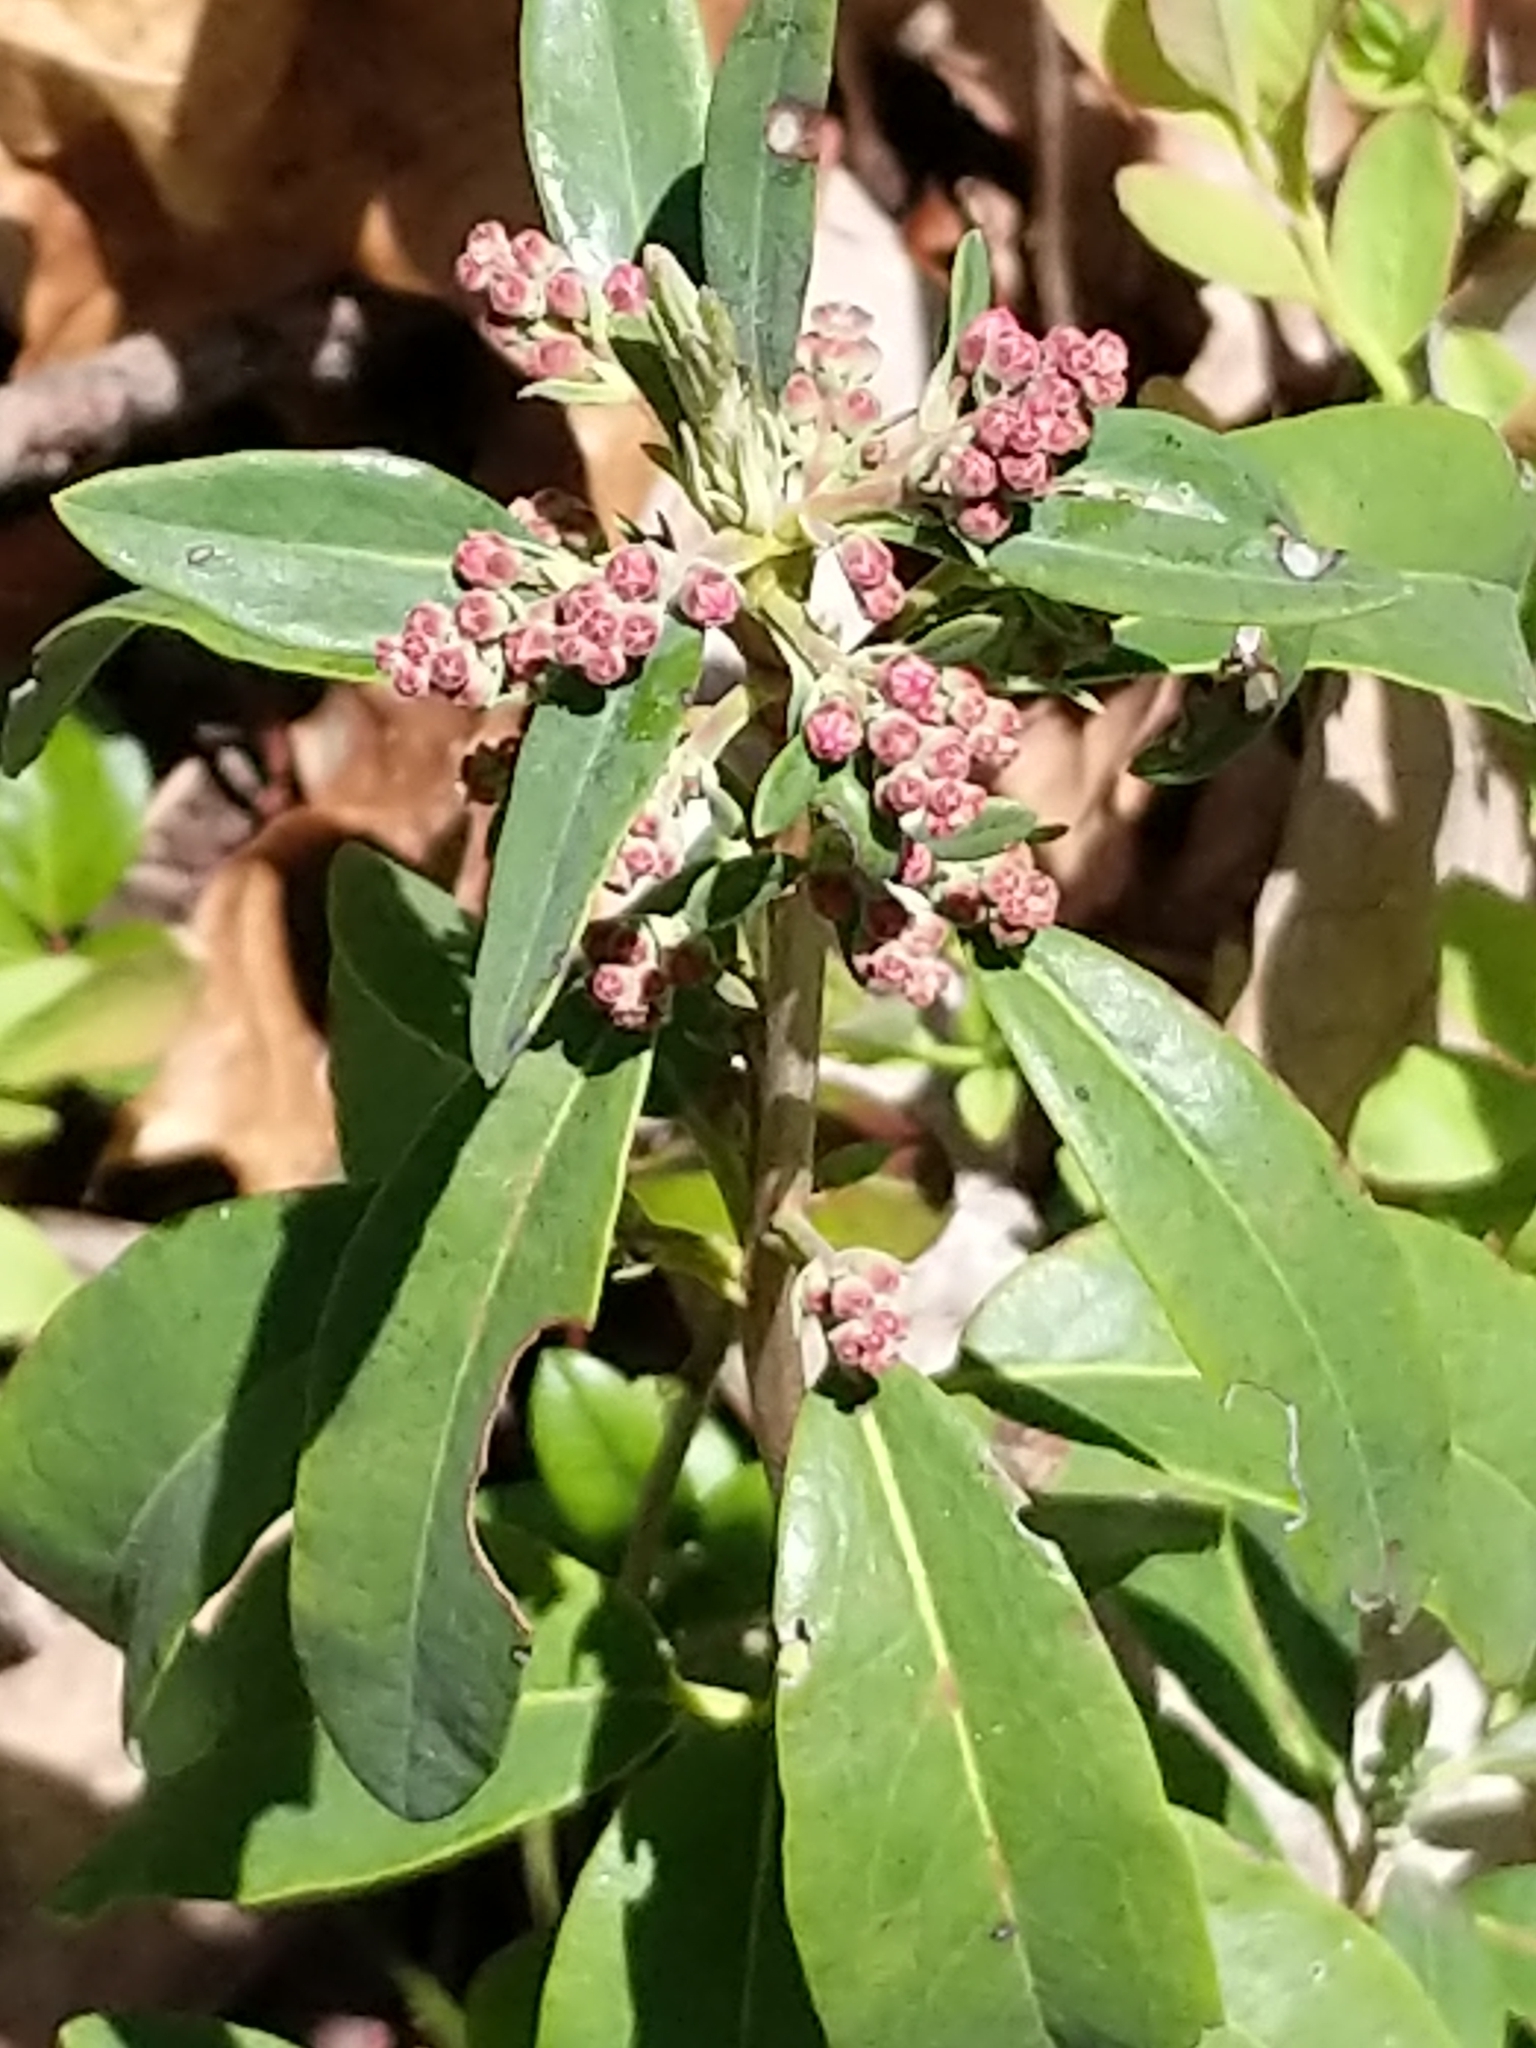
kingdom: Plantae
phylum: Tracheophyta
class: Magnoliopsida
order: Ericales
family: Ericaceae
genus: Kalmia
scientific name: Kalmia angustifolia
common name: Sheep-laurel
